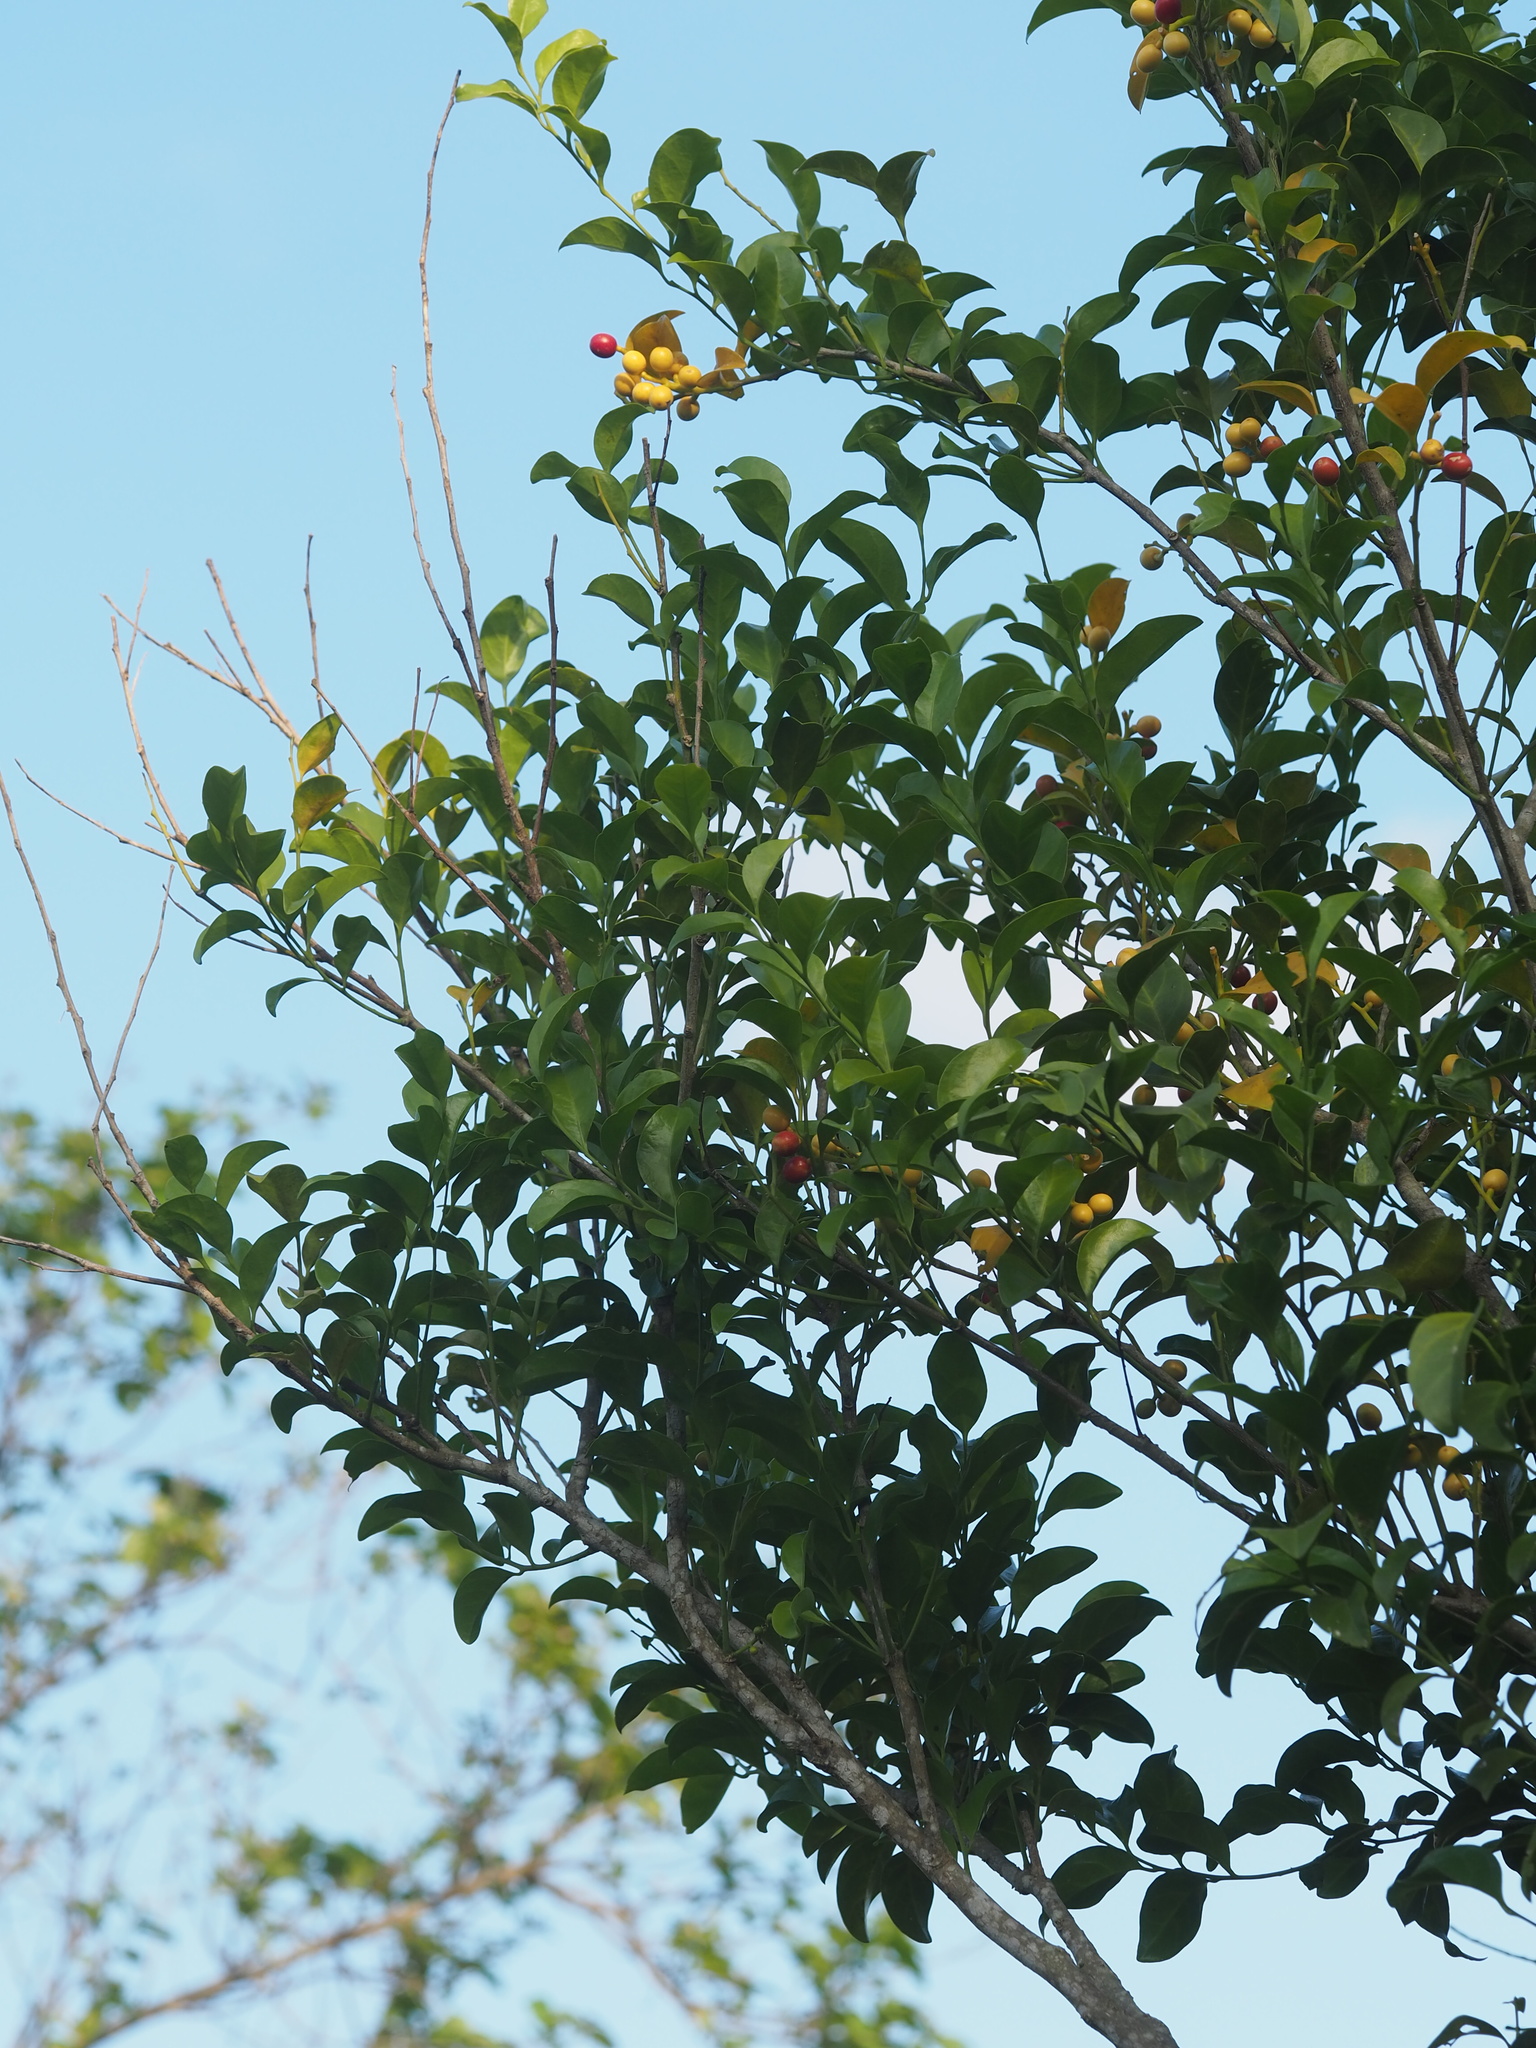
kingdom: Plantae
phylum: Tracheophyta
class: Magnoliopsida
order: Santalales
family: Opiliaceae
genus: Champereia
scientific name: Champereia manillana
